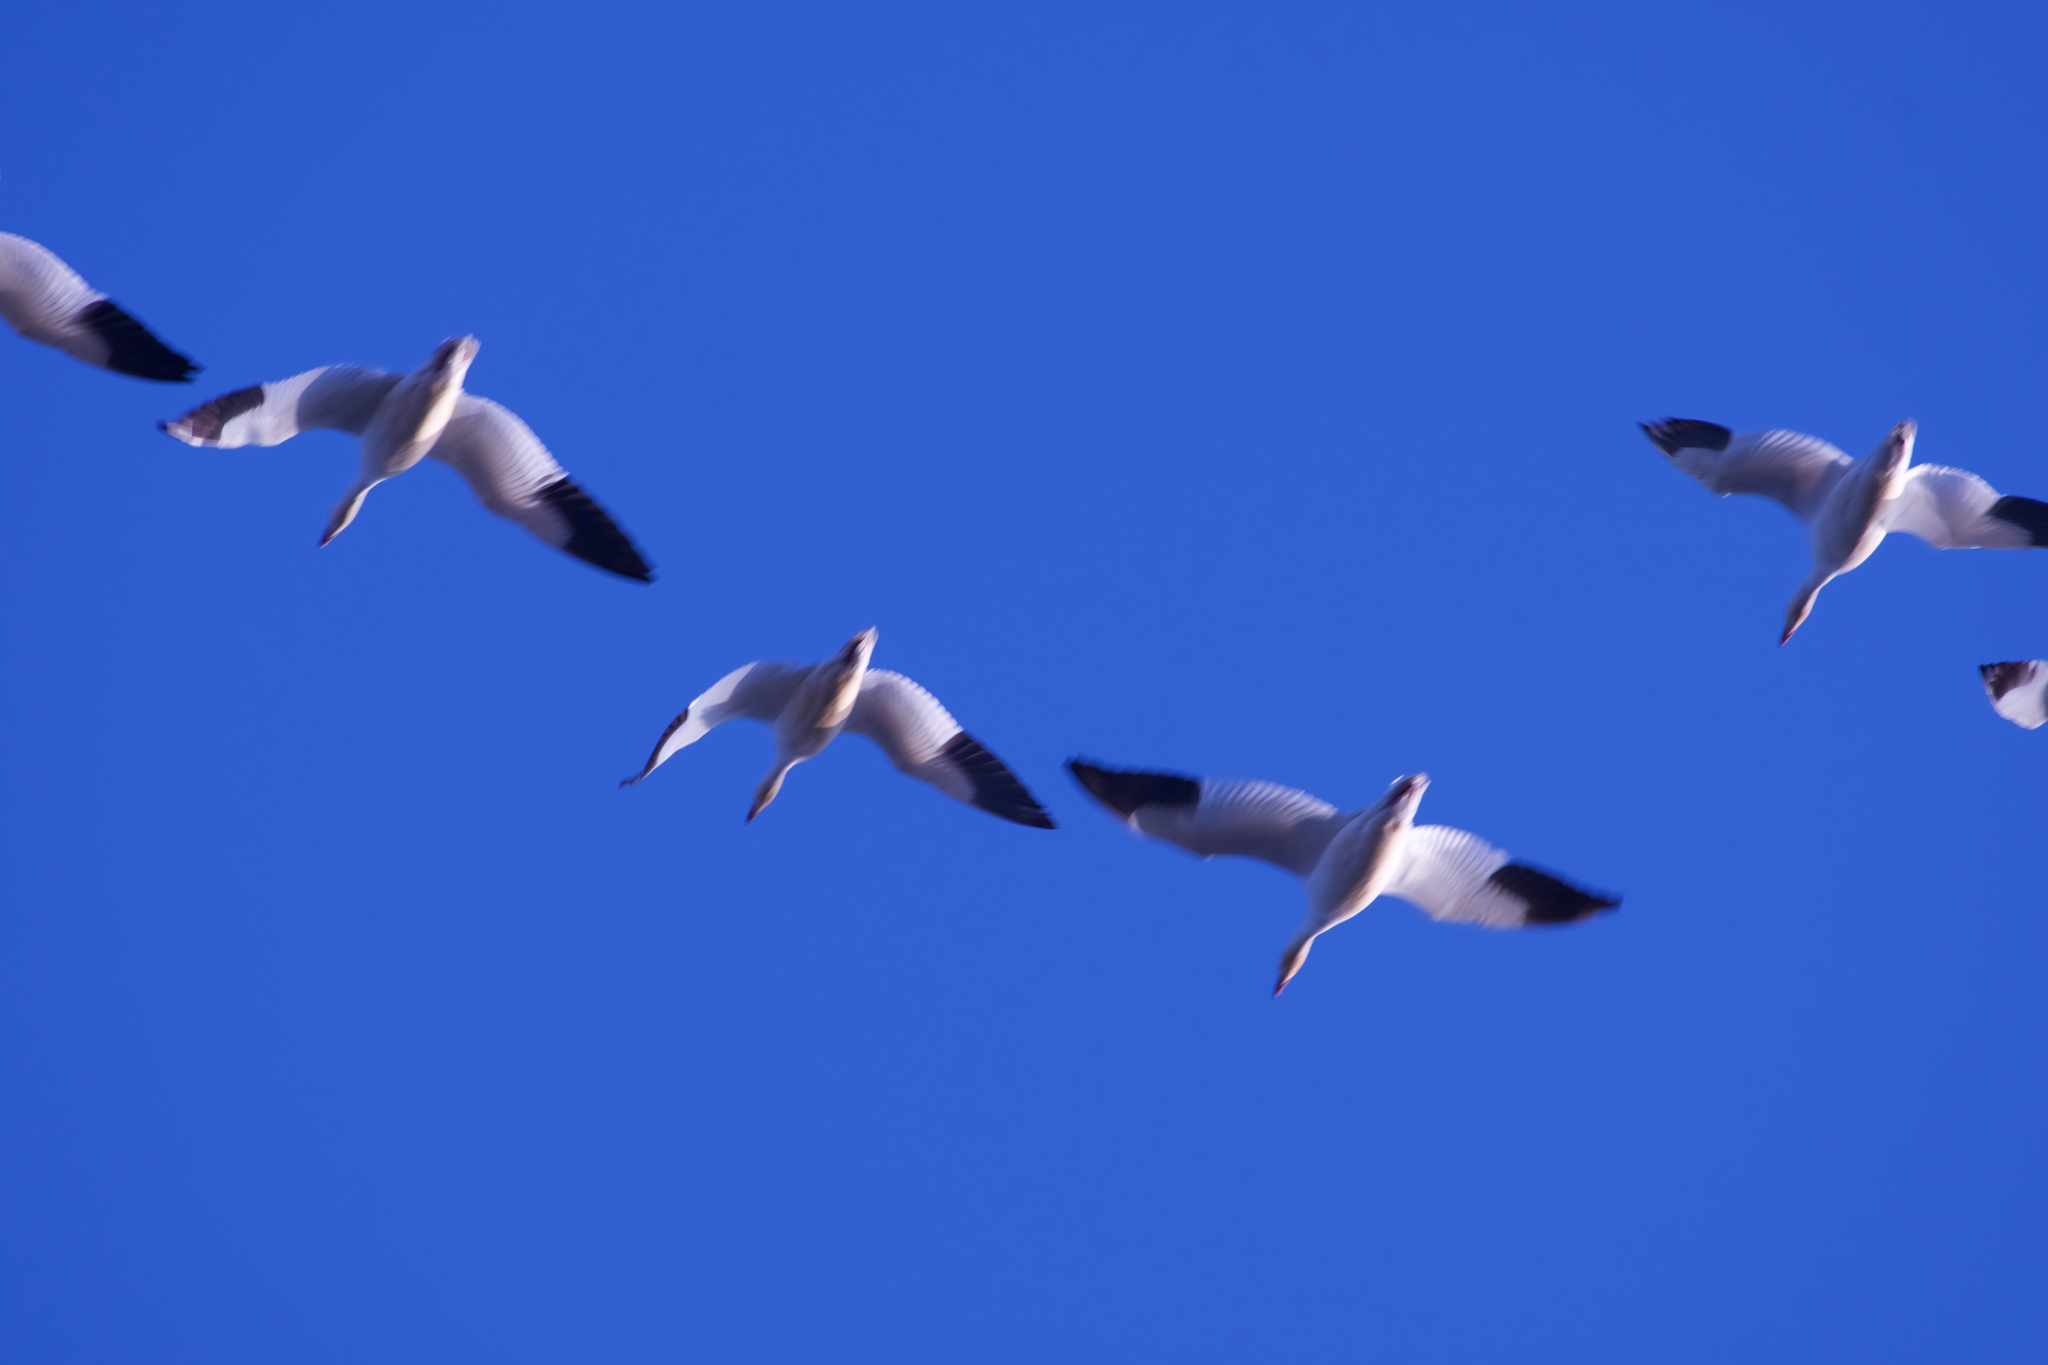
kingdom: Animalia
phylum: Chordata
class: Aves
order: Anseriformes
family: Anatidae
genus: Anser
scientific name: Anser caerulescens
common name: Snow goose
